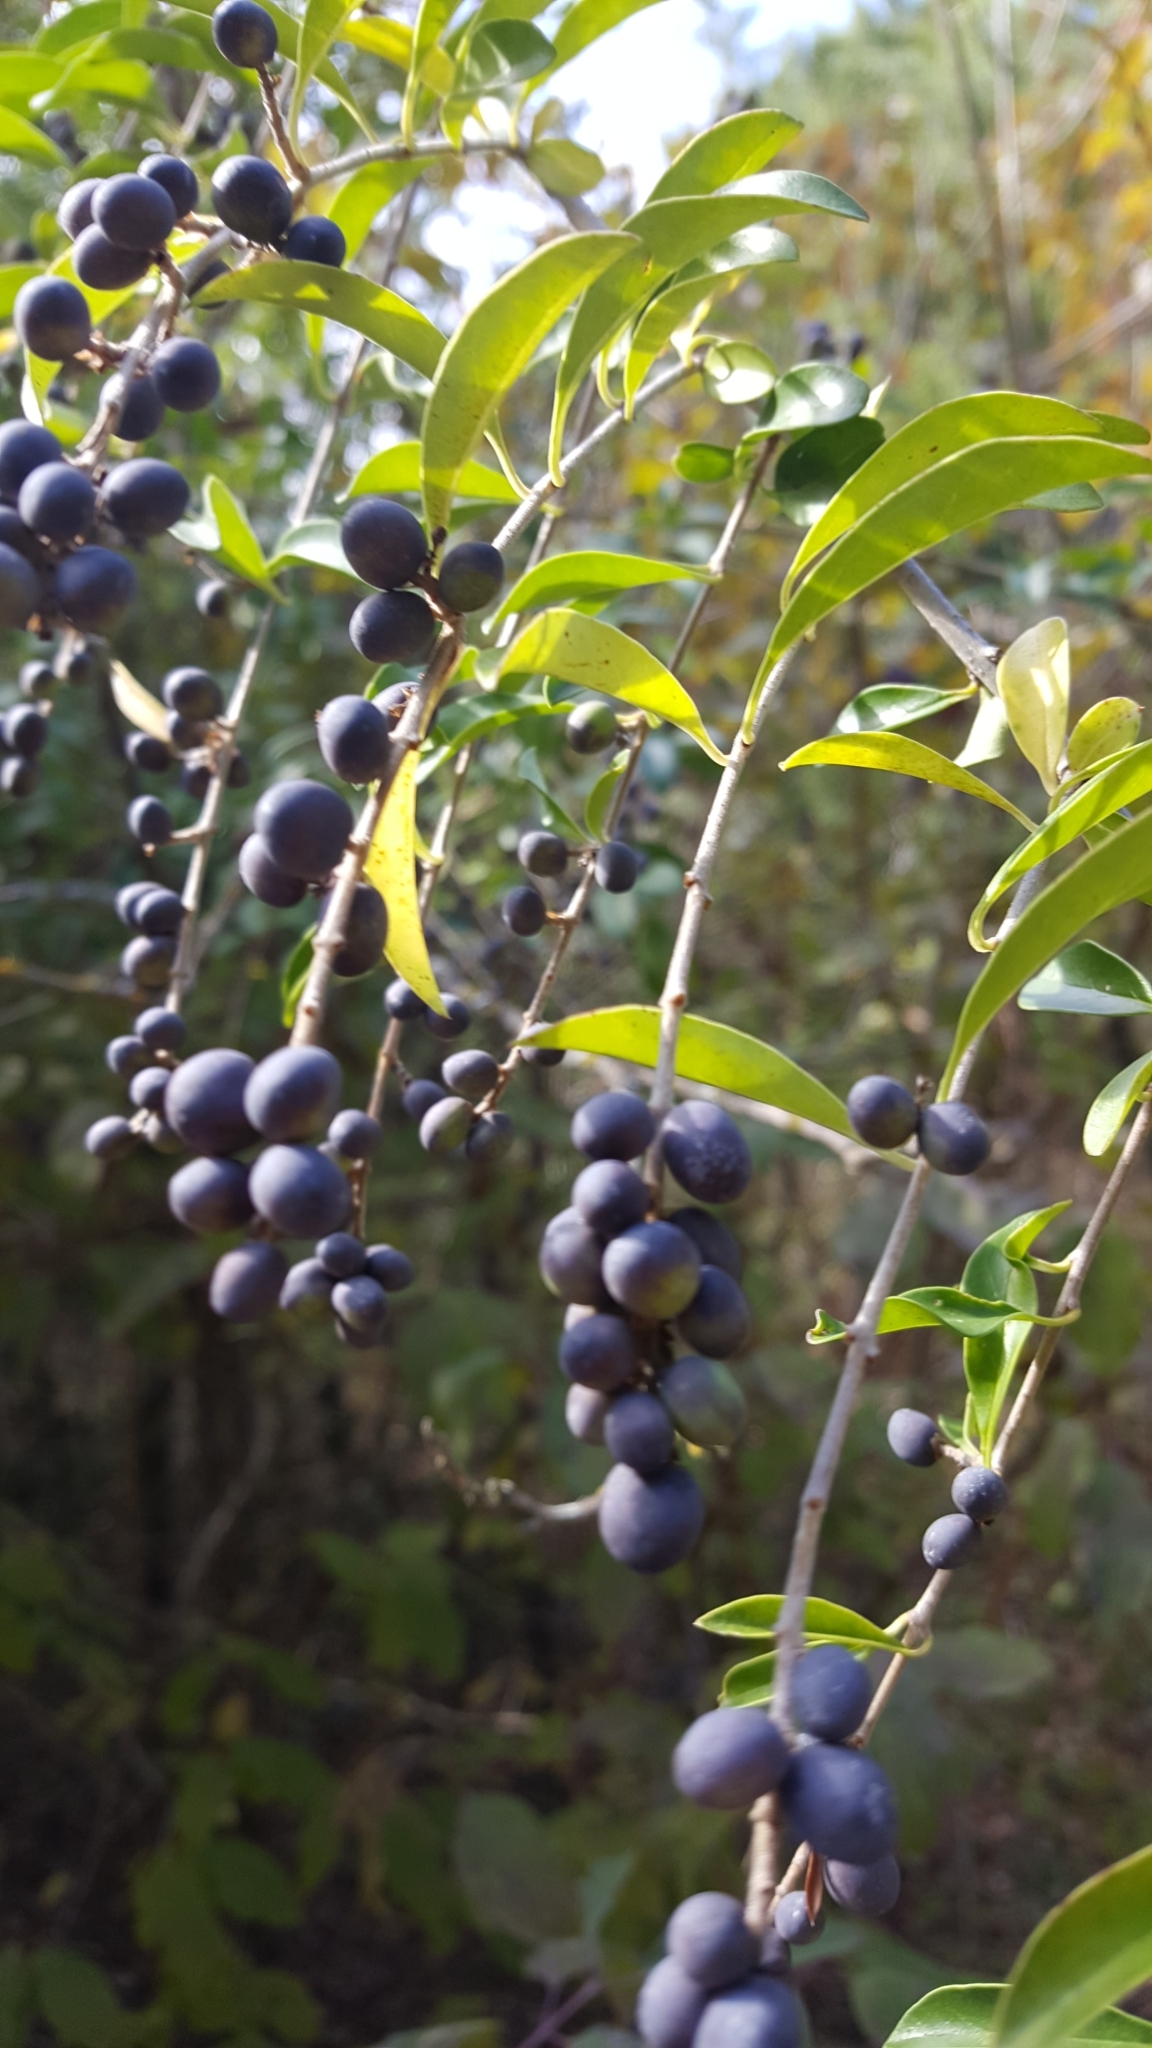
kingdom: Plantae
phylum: Tracheophyta
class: Magnoliopsida
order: Lamiales
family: Oleaceae
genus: Ligustrum
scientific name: Ligustrum quihoui
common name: Waxyleaf privet
